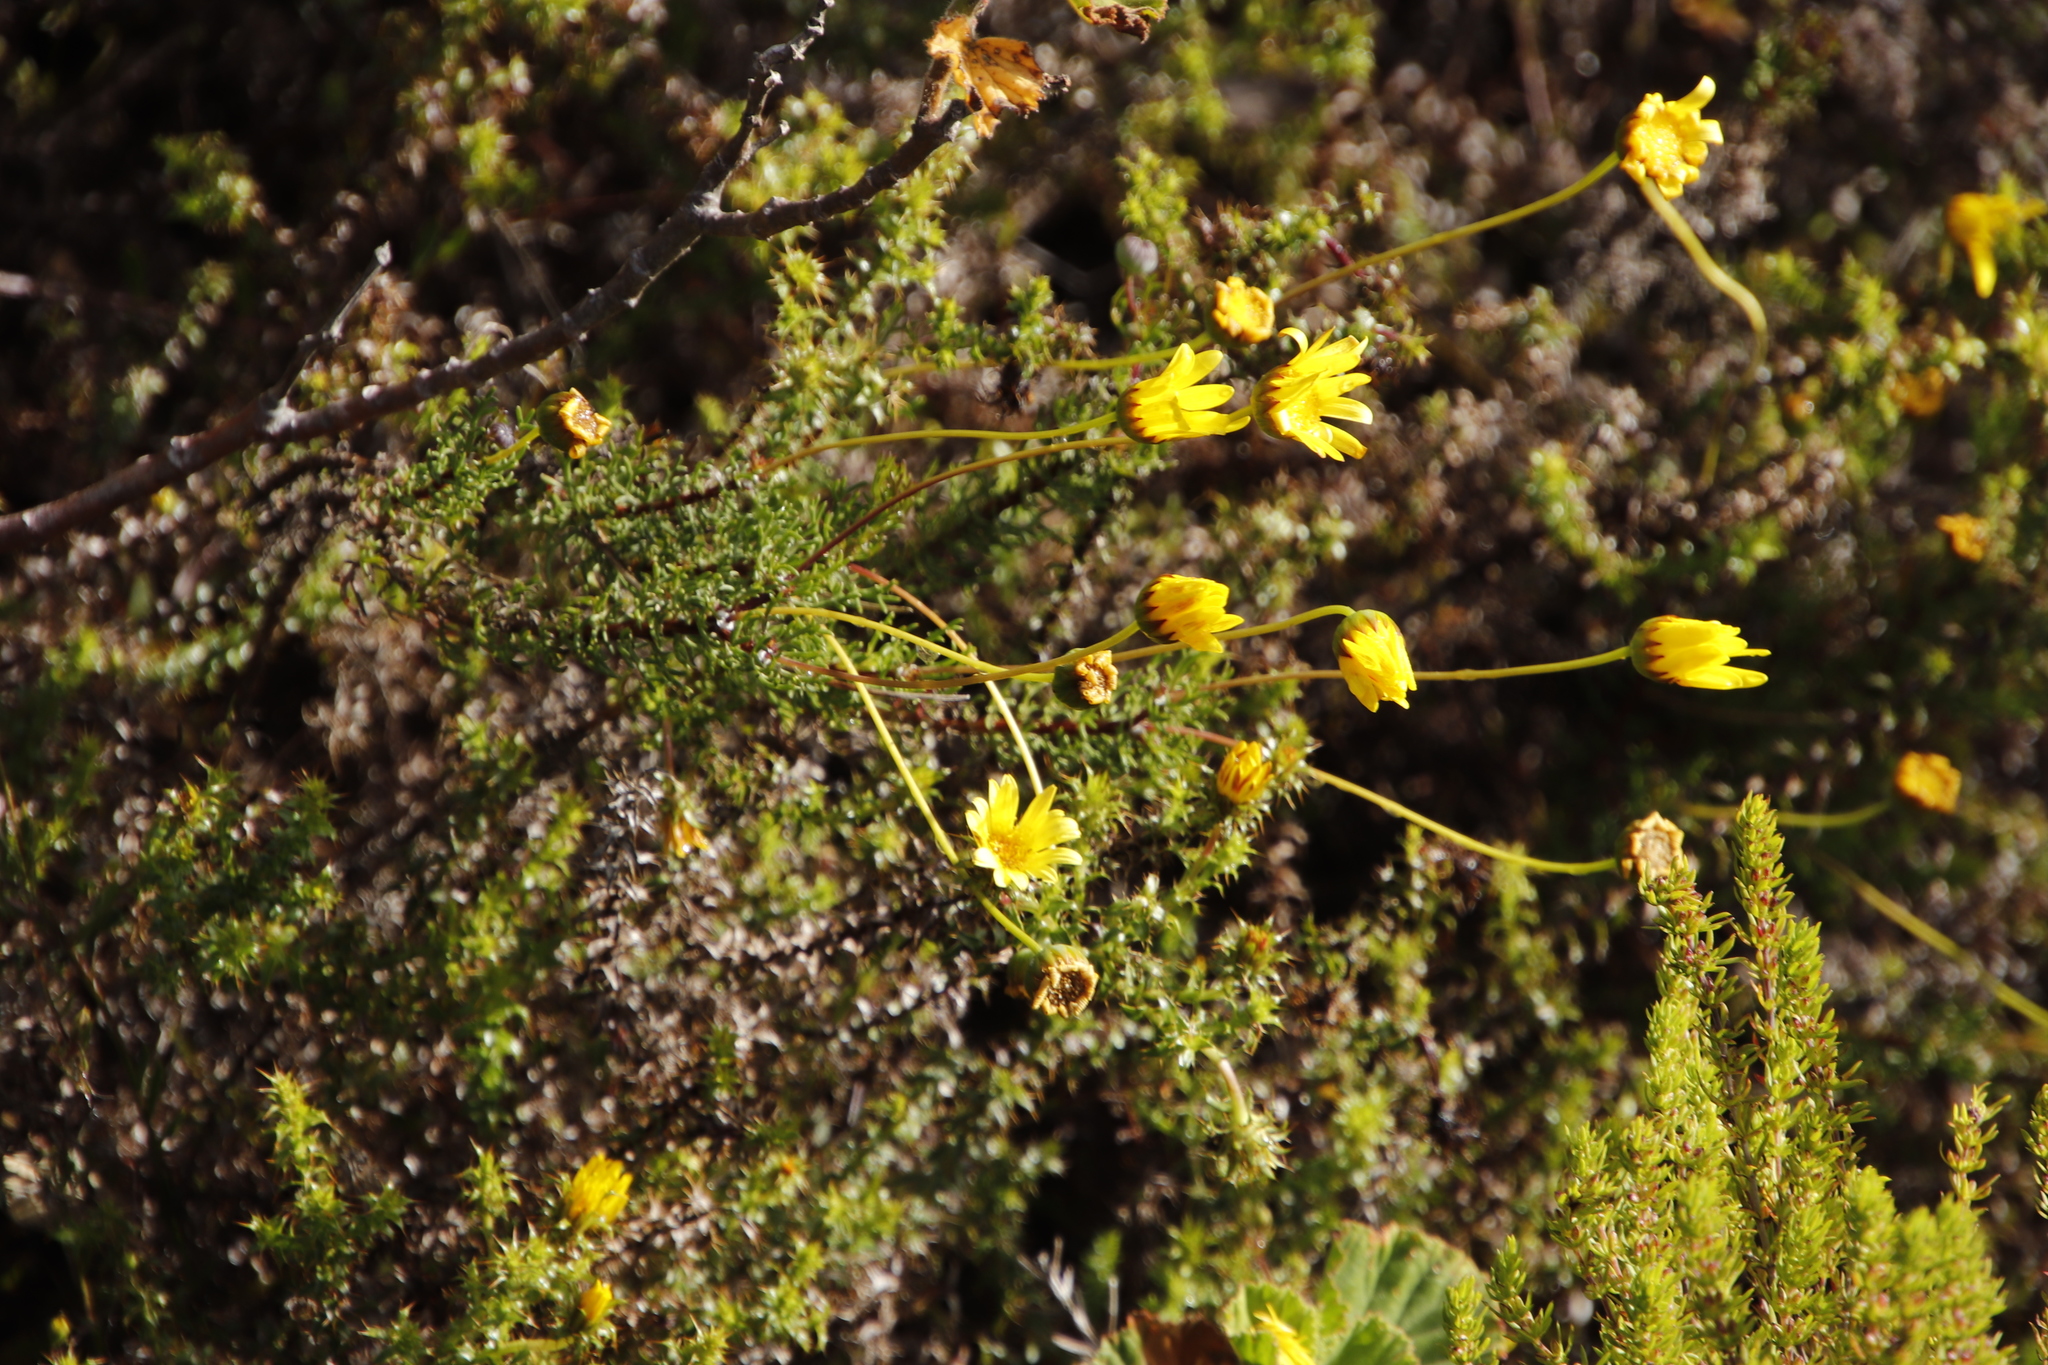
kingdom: Plantae
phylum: Tracheophyta
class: Magnoliopsida
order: Asterales
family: Asteraceae
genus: Euryops
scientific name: Euryops abrotanifolius
